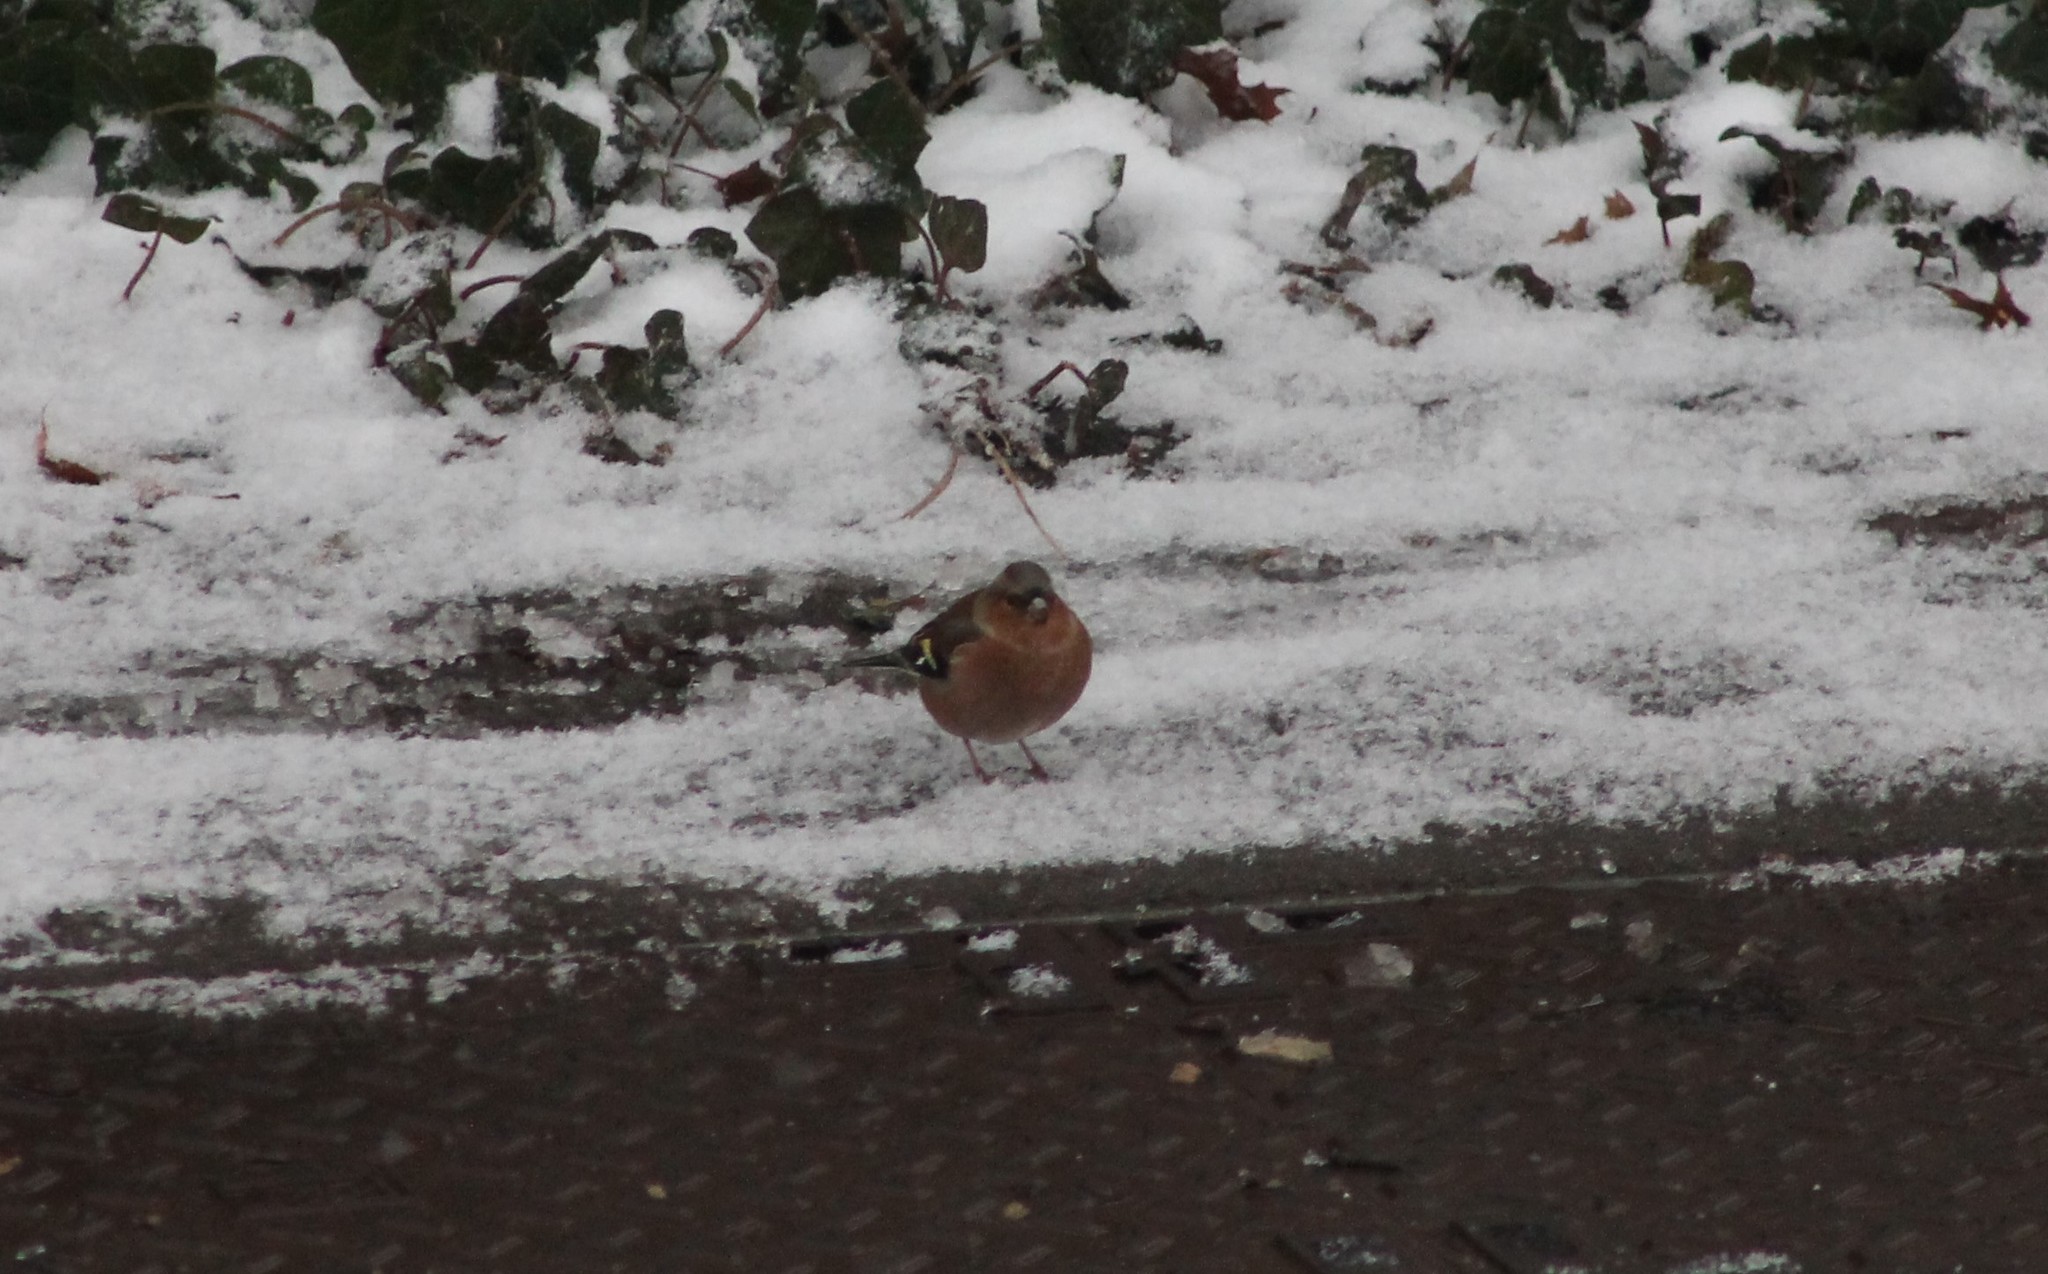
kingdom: Animalia
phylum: Chordata
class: Aves
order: Passeriformes
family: Fringillidae
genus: Fringilla
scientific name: Fringilla coelebs
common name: Common chaffinch
